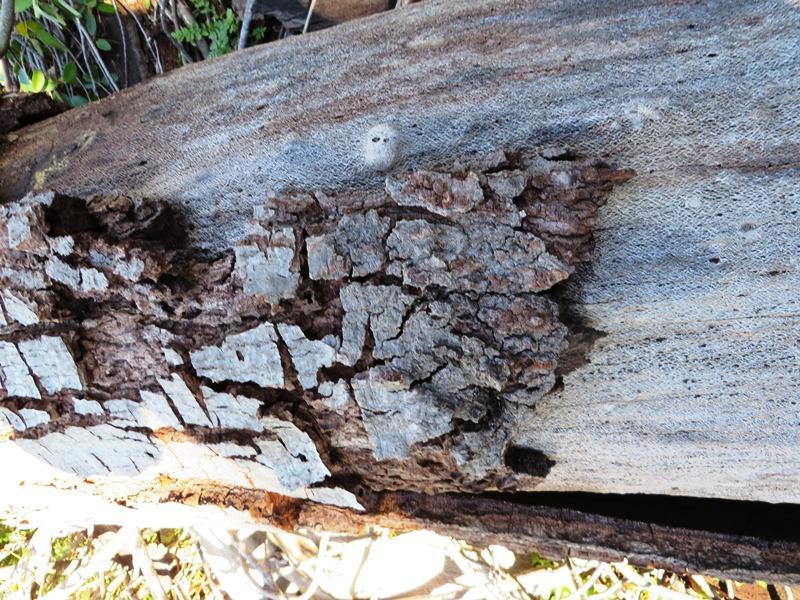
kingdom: Plantae
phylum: Tracheophyta
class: Magnoliopsida
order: Proteales
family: Proteaceae
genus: Leucadendron
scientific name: Leucadendron argenteum
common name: Cape silver tree
